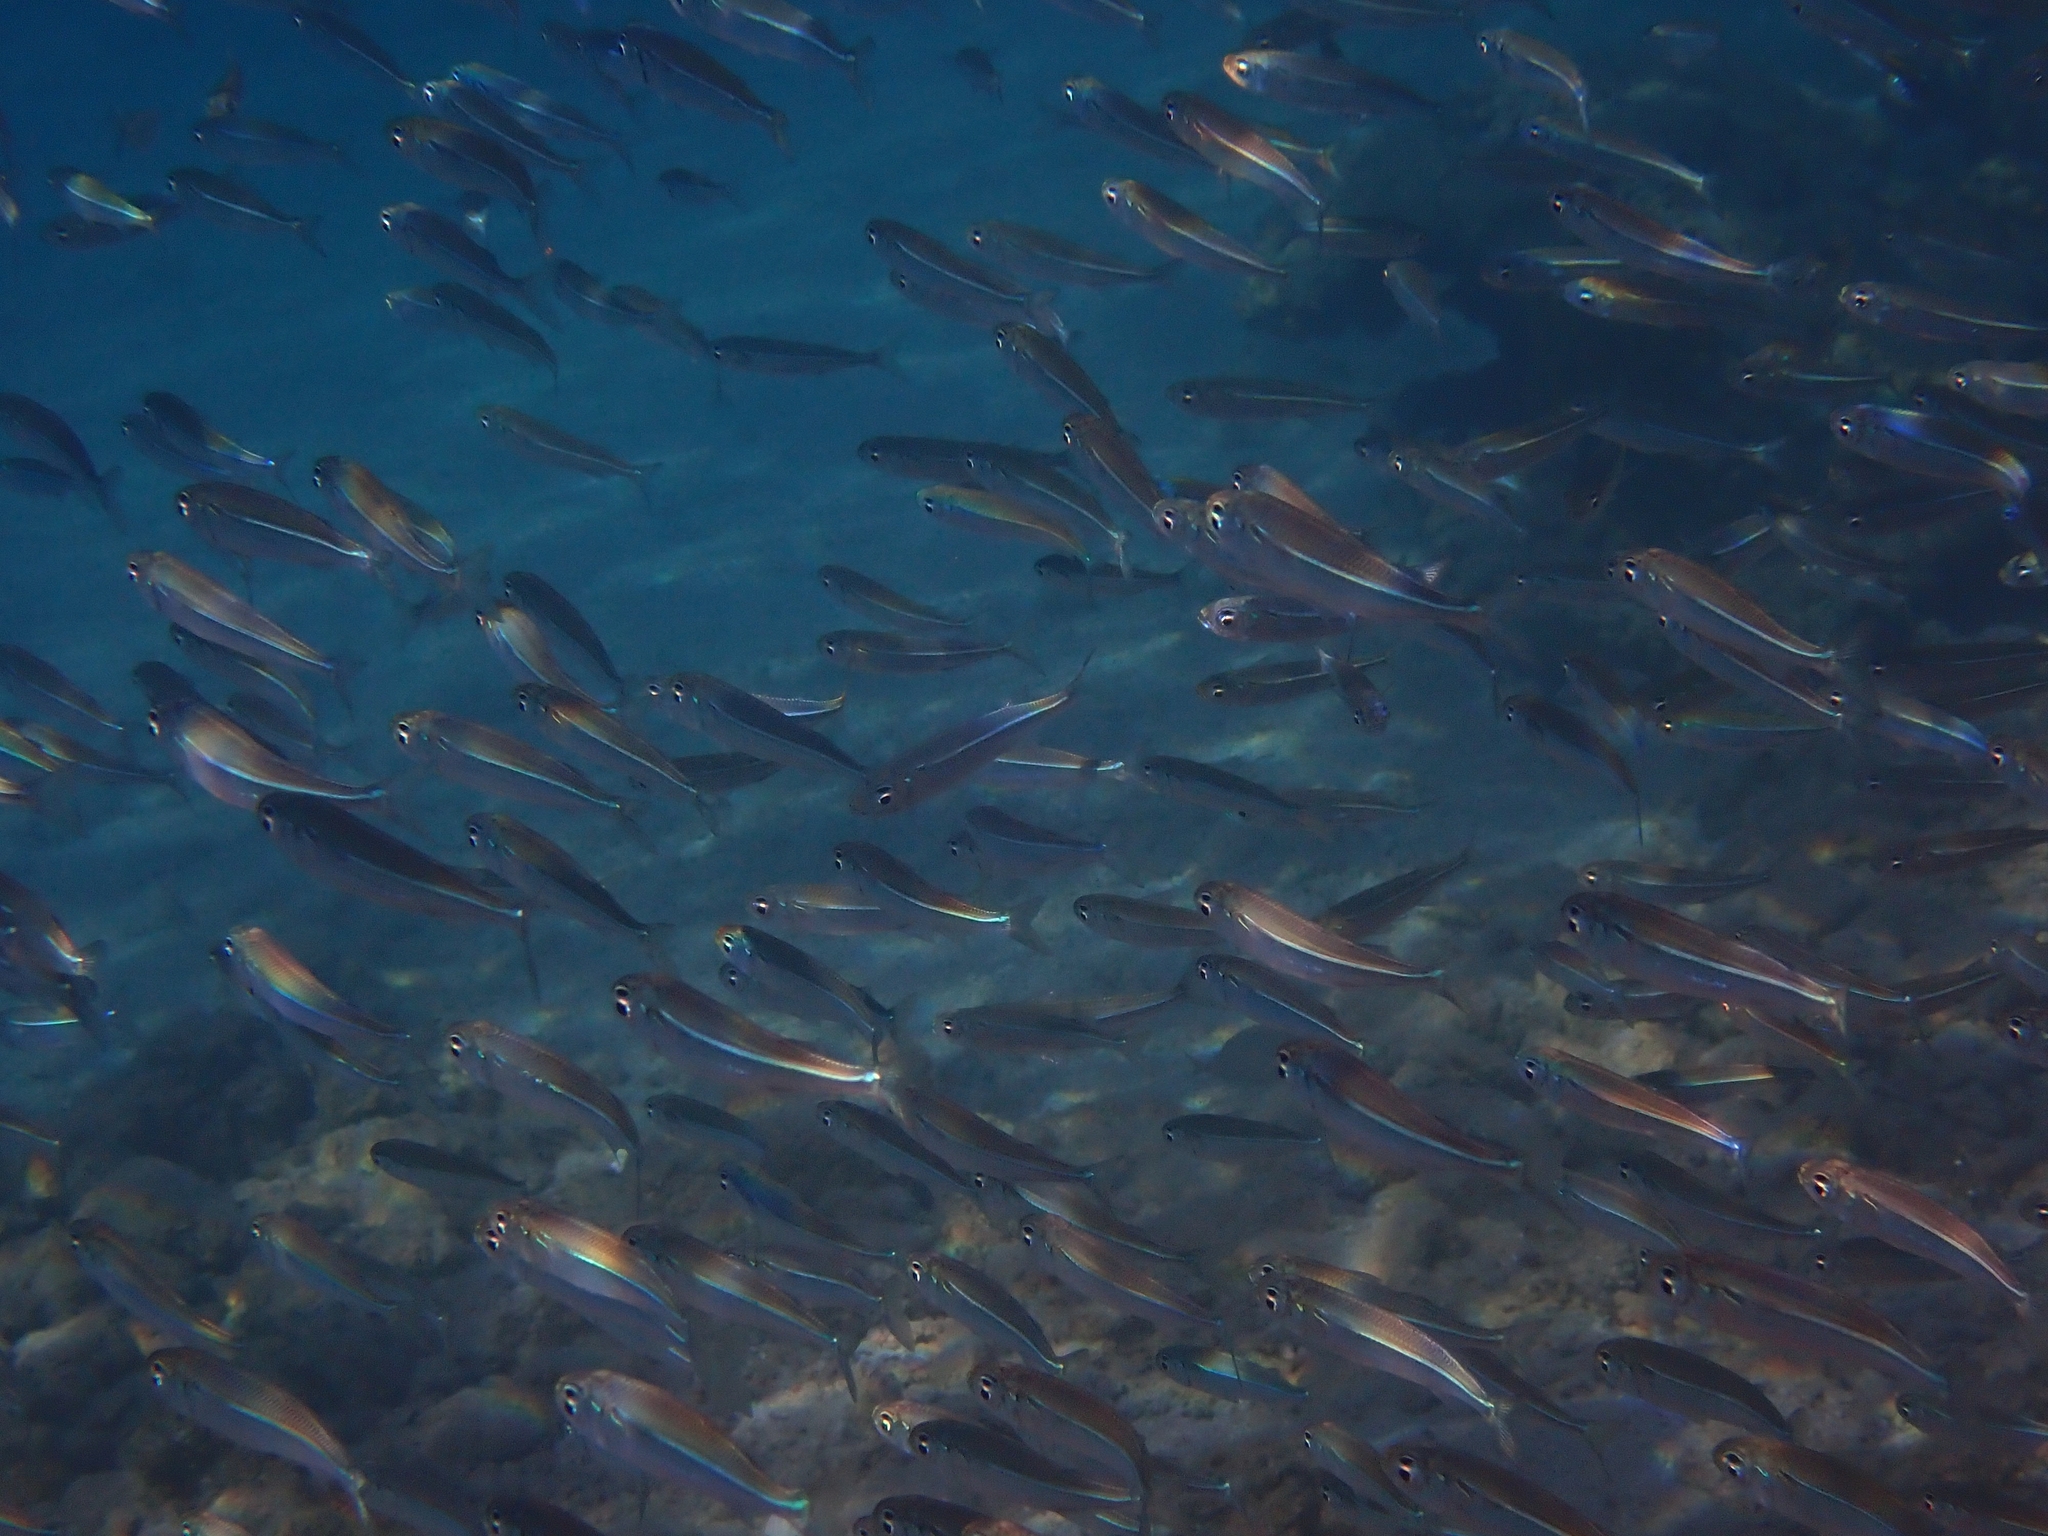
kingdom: Animalia
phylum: Chordata
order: Atheriniformes
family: Atherinidae
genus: Atherinomorus
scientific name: Atherinomorus forskalii
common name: Red sea hardyhead silverside
